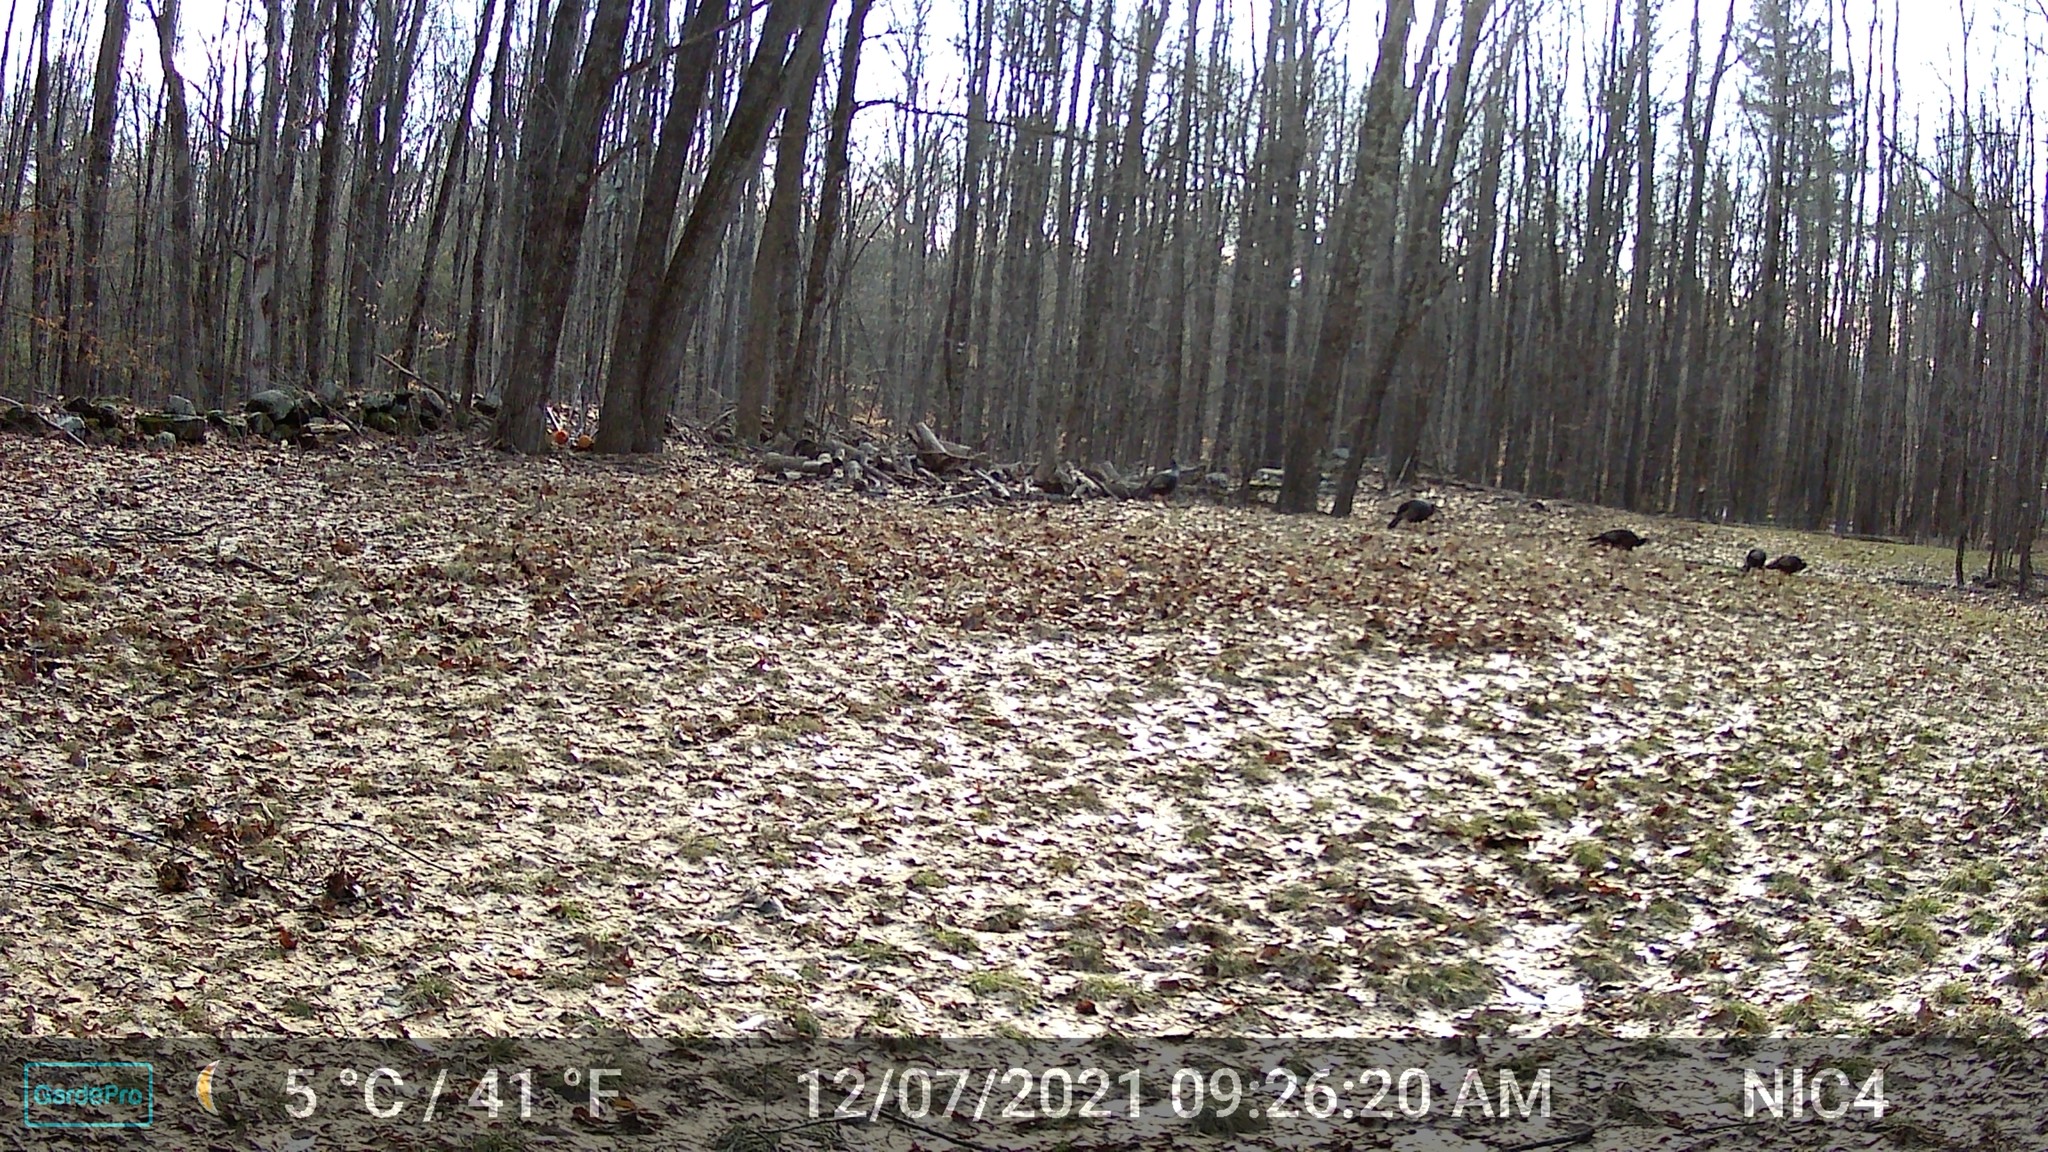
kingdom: Animalia
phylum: Chordata
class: Aves
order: Galliformes
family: Phasianidae
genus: Meleagris
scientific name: Meleagris gallopavo
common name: Wild turkey
